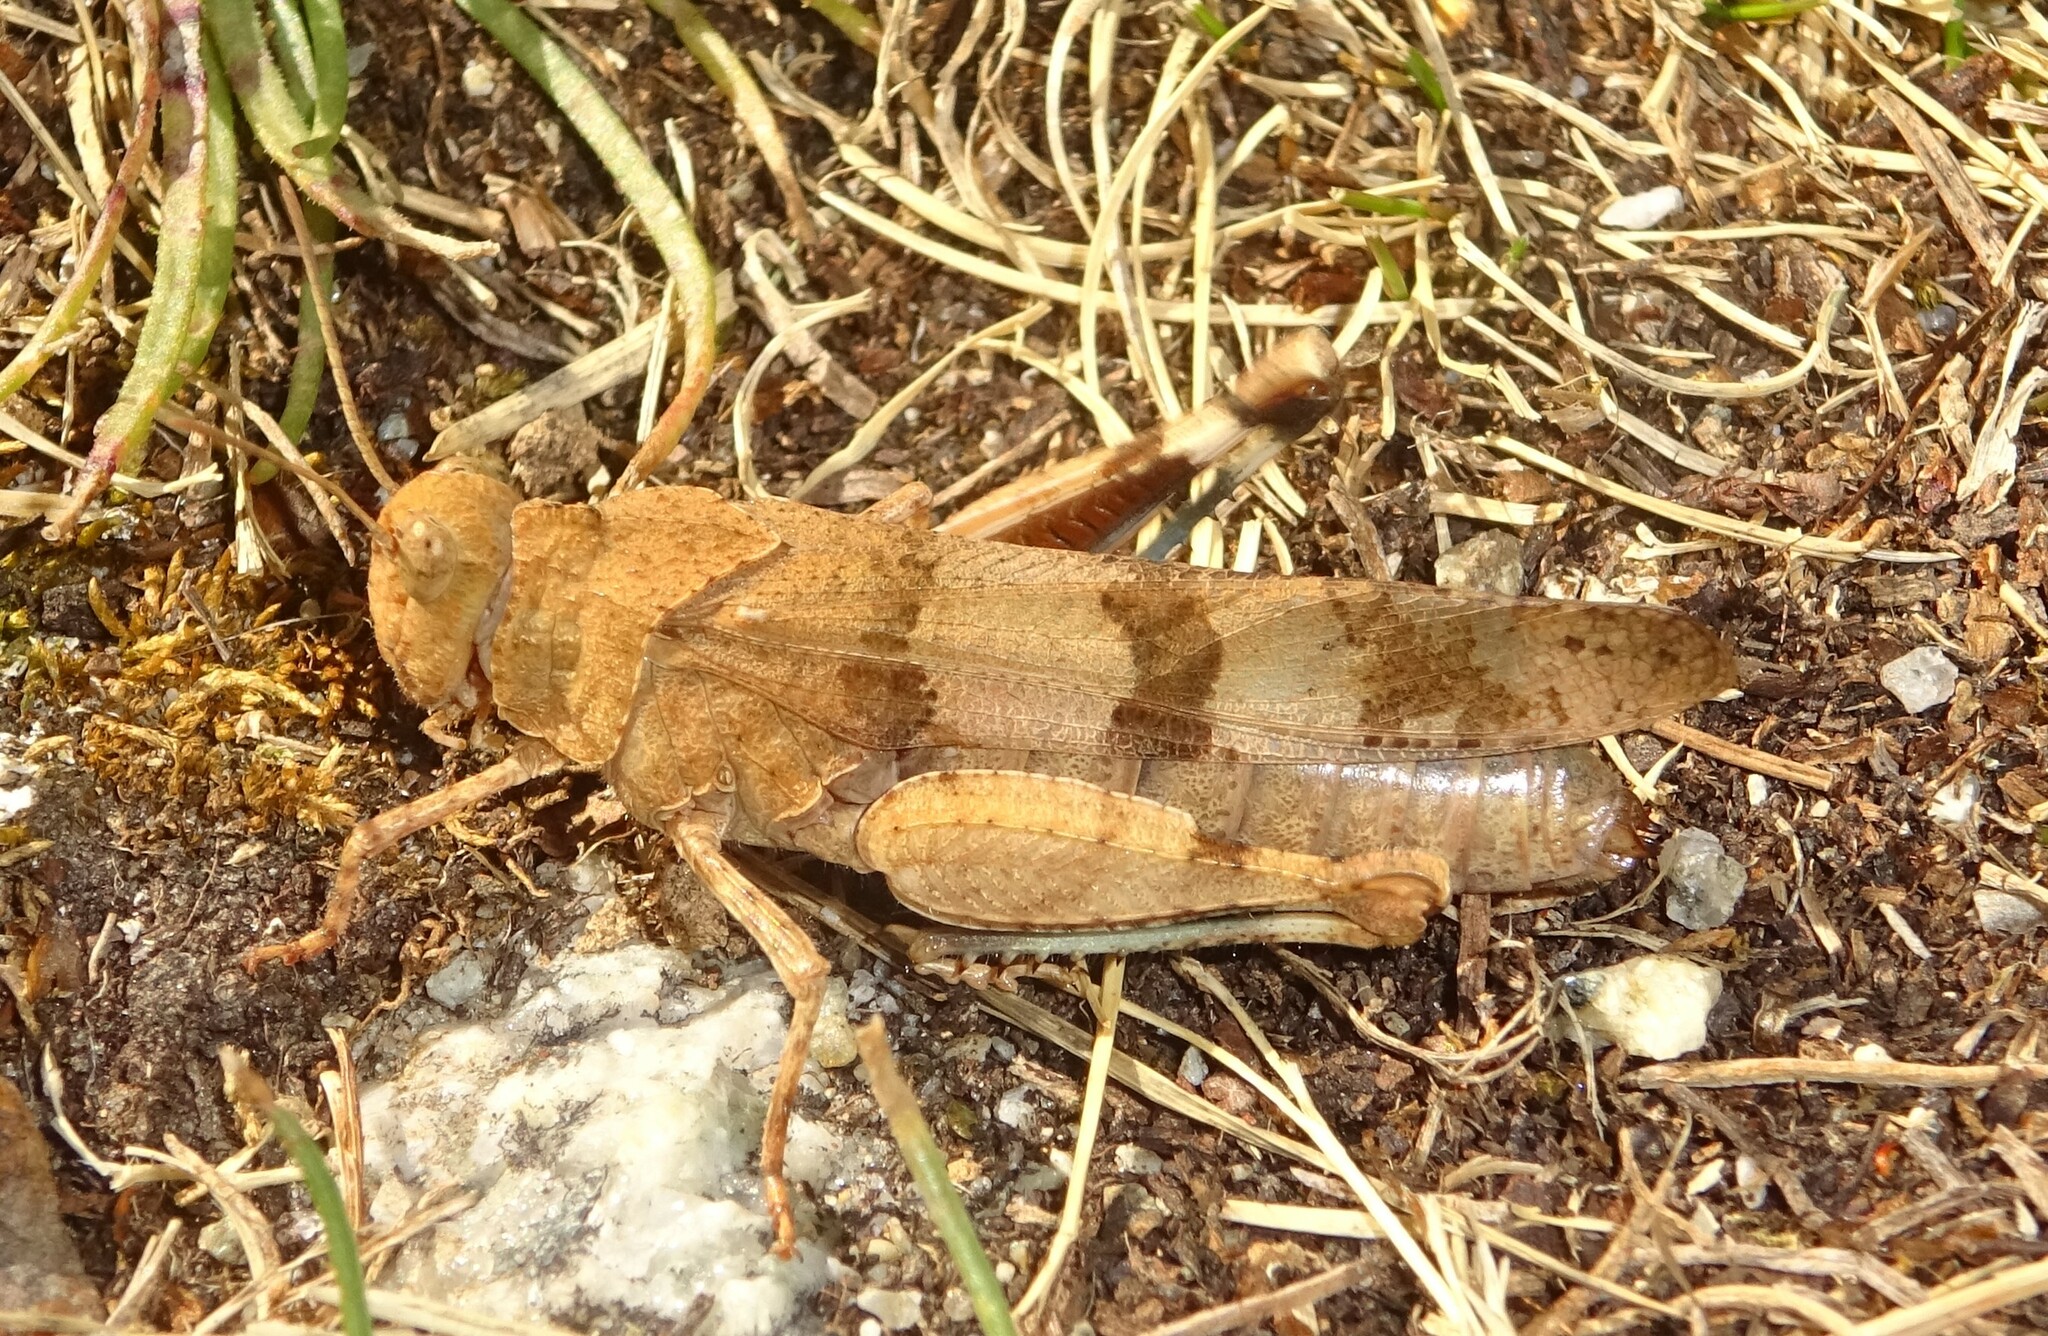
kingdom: Animalia
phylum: Arthropoda
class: Insecta
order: Orthoptera
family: Acrididae
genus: Oedipoda
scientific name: Oedipoda caerulescens
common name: Blue-winged grasshopper
